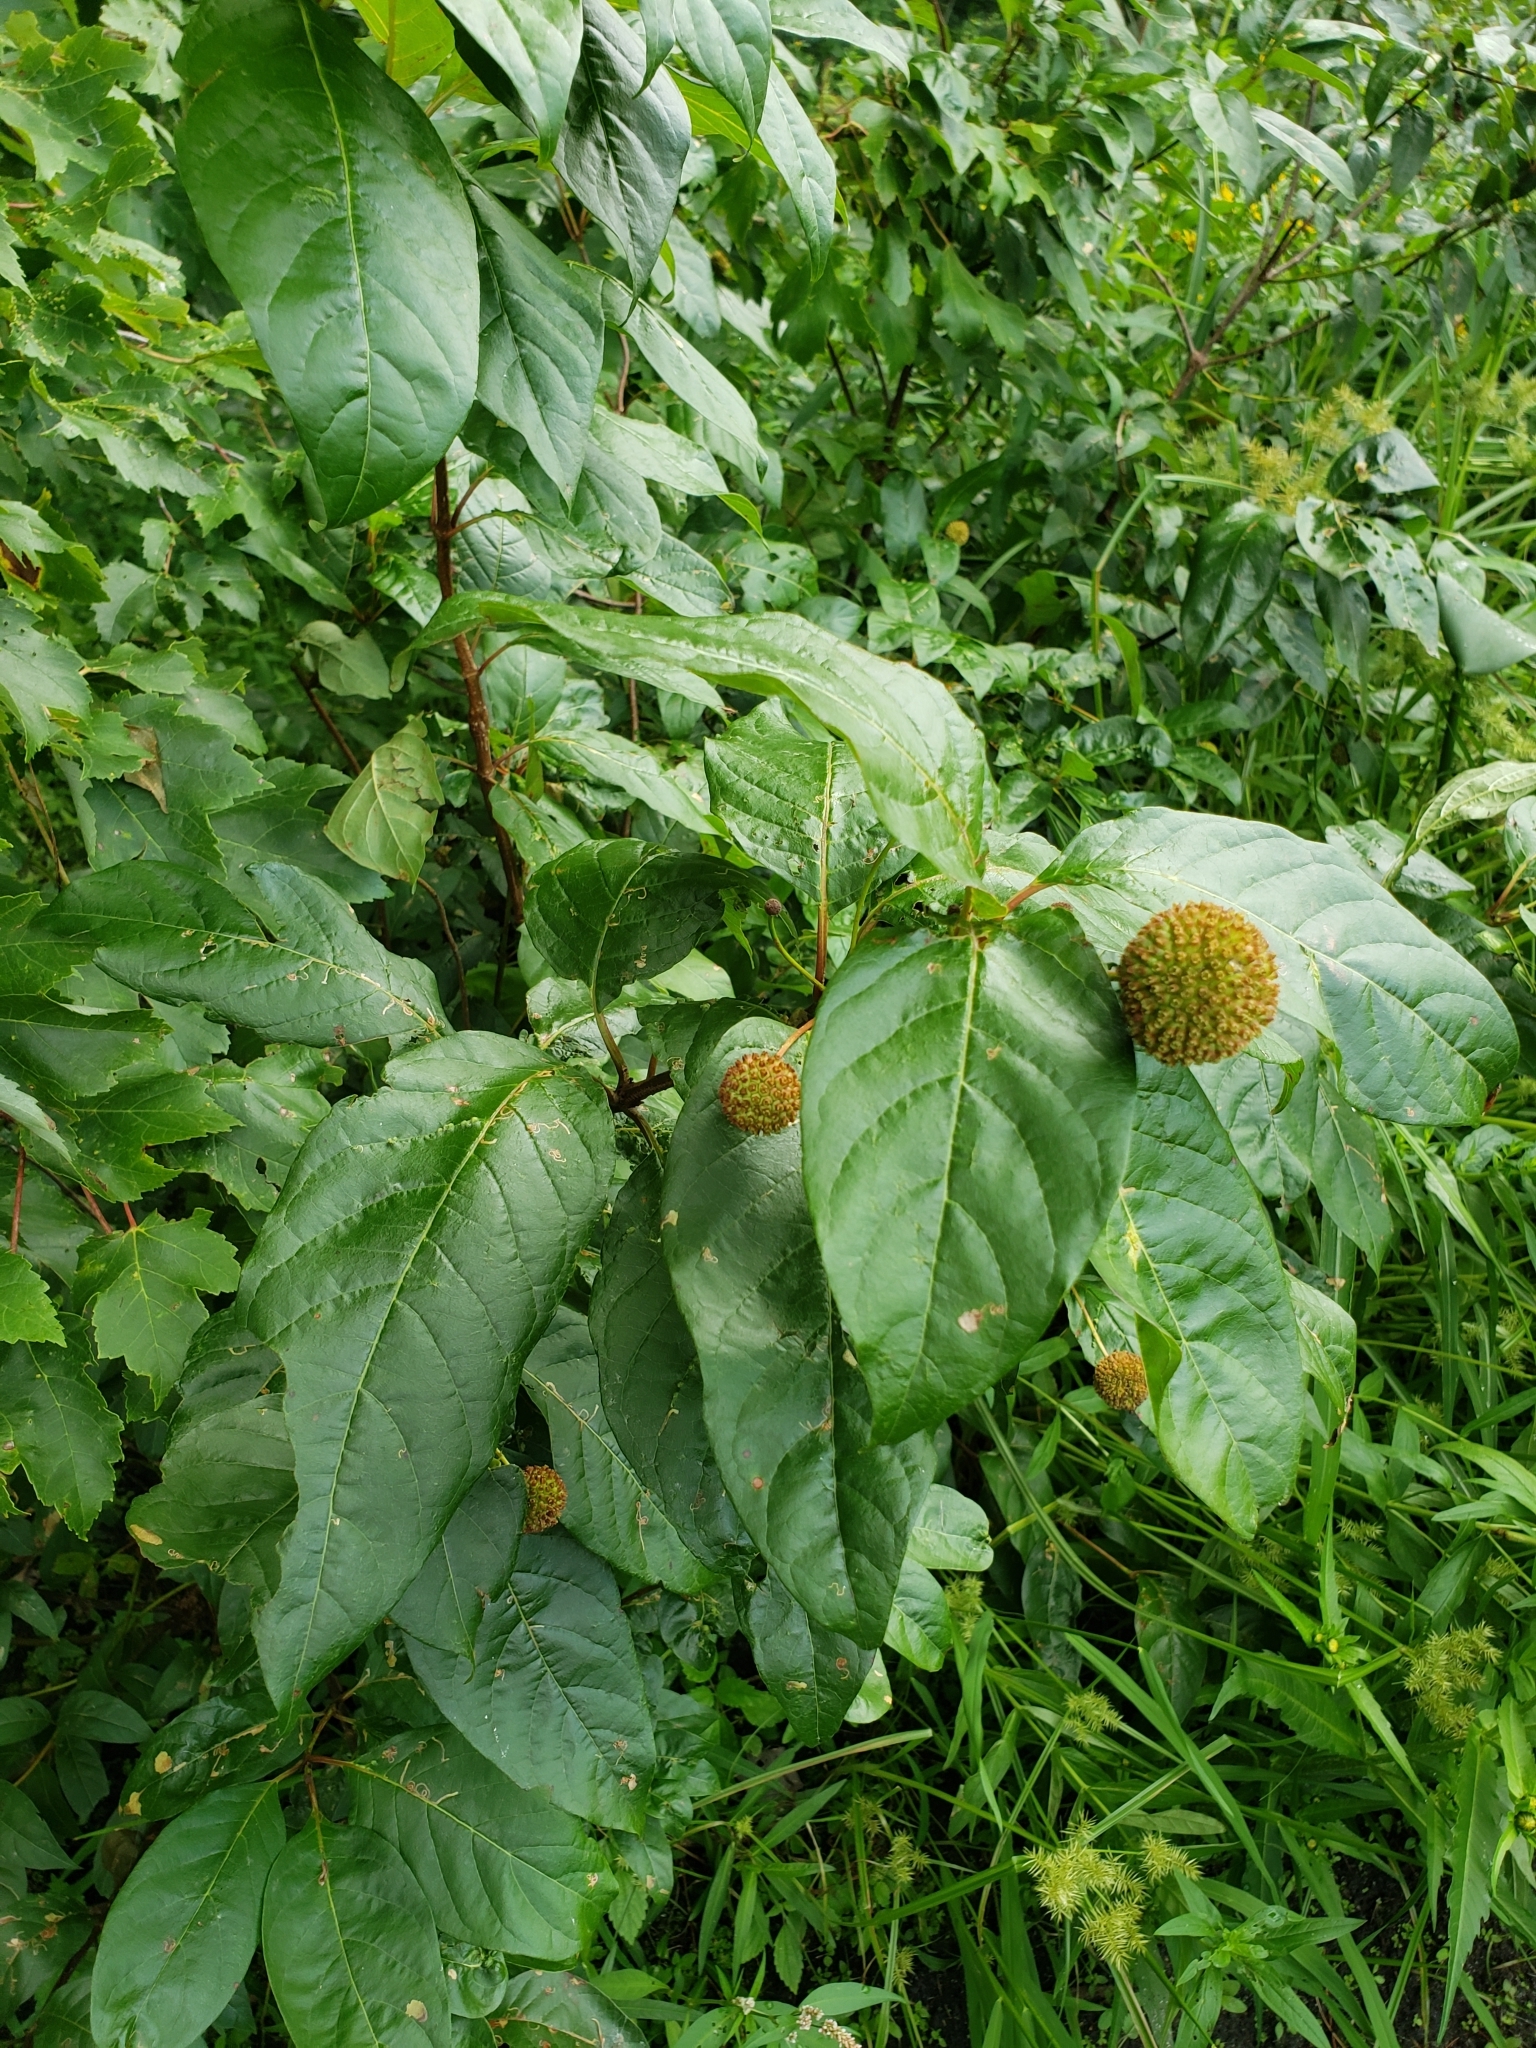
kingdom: Plantae
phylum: Tracheophyta
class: Magnoliopsida
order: Gentianales
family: Rubiaceae
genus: Cephalanthus
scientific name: Cephalanthus occidentalis
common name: Button-willow
